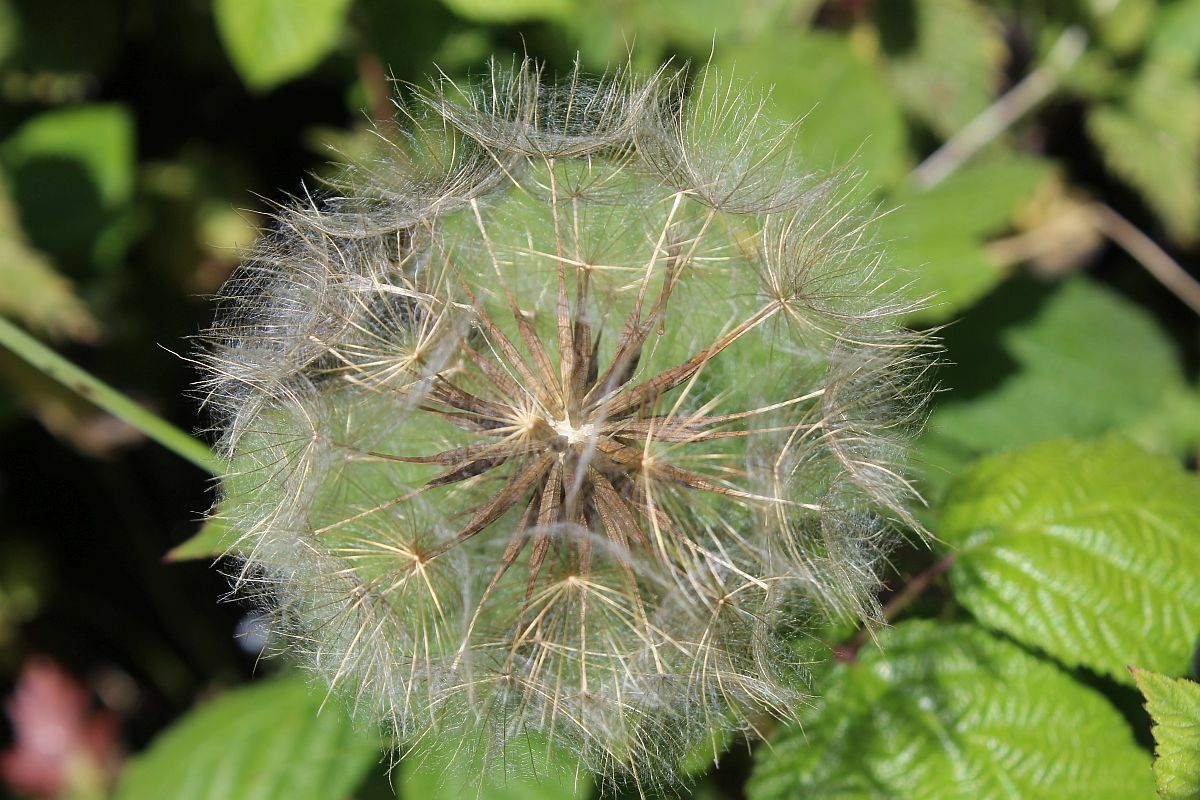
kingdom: Plantae
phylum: Tracheophyta
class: Magnoliopsida
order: Asterales
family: Asteraceae
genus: Tragopogon
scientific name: Tragopogon pratensis
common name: Goat's-beard
